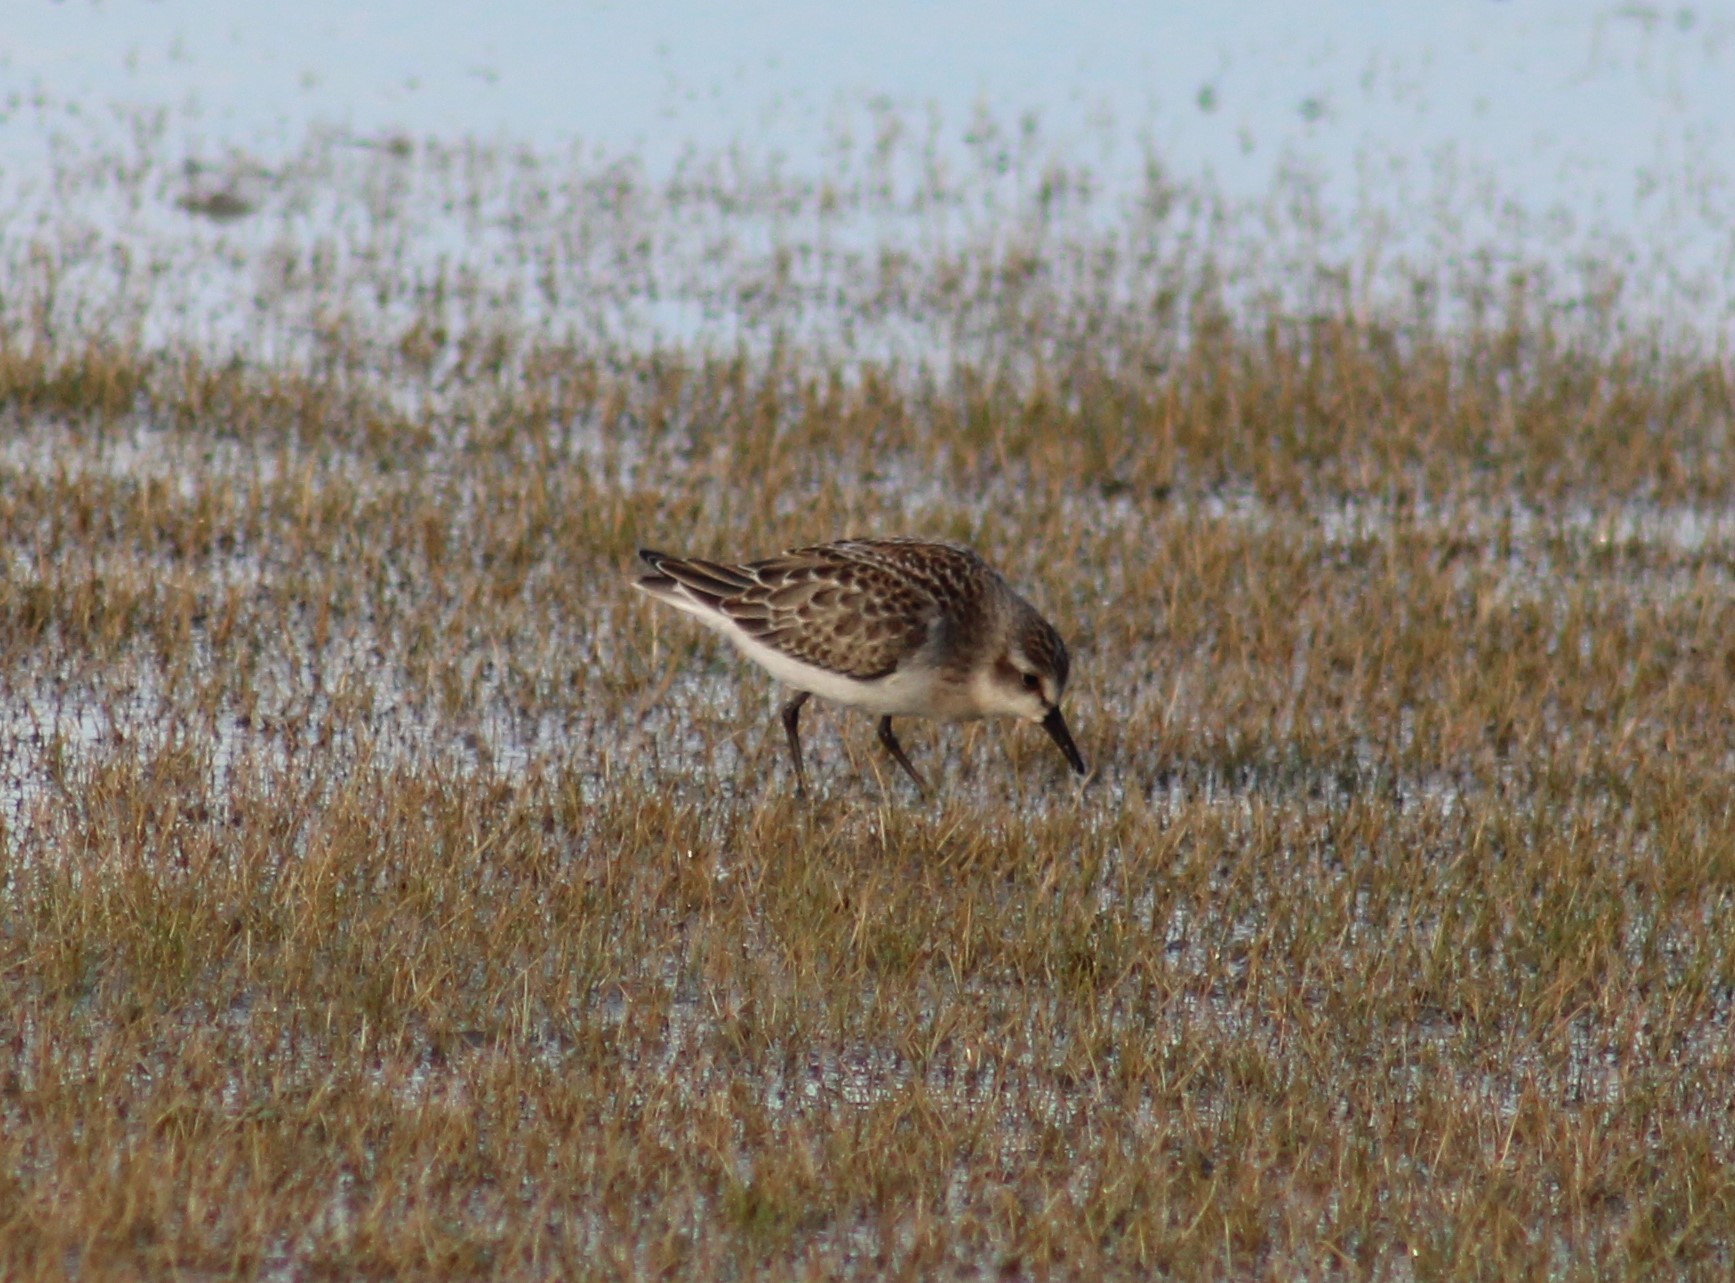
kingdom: Animalia
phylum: Chordata
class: Aves
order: Charadriiformes
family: Scolopacidae
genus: Calidris
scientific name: Calidris pusilla
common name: Semipalmated sandpiper
